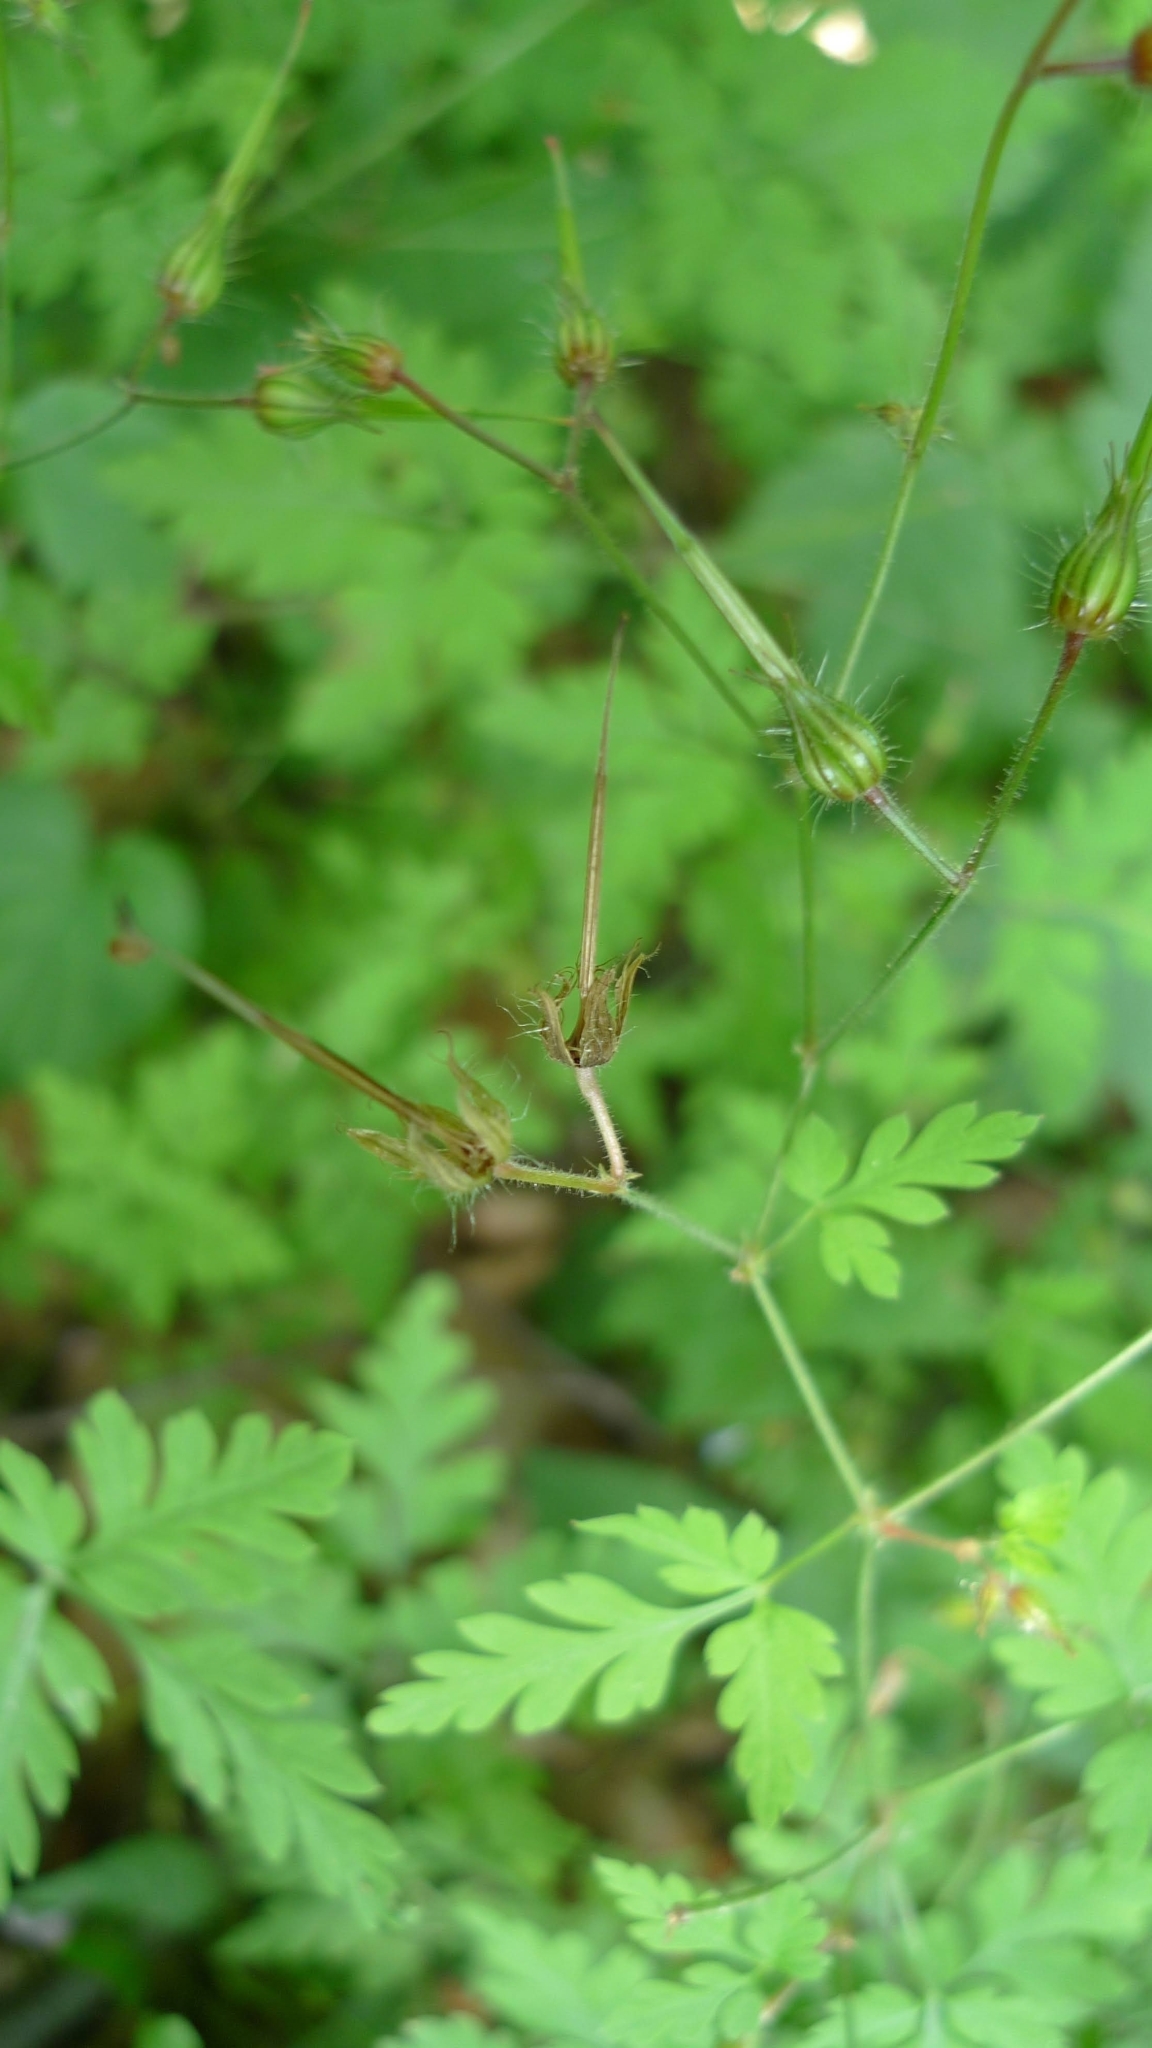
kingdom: Plantae
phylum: Tracheophyta
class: Magnoliopsida
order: Geraniales
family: Geraniaceae
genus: Geranium
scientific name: Geranium robertianum
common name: Herb-robert
